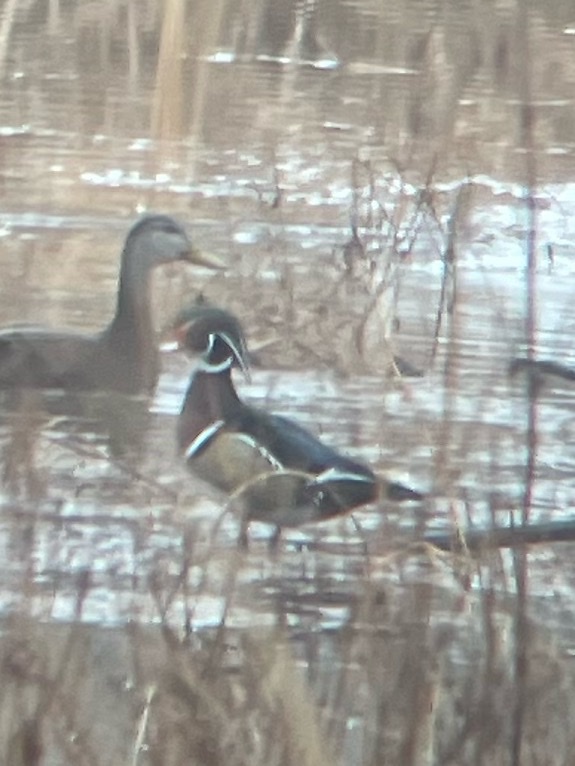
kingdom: Animalia
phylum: Chordata
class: Aves
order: Anseriformes
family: Anatidae
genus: Aix
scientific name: Aix sponsa
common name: Wood duck
